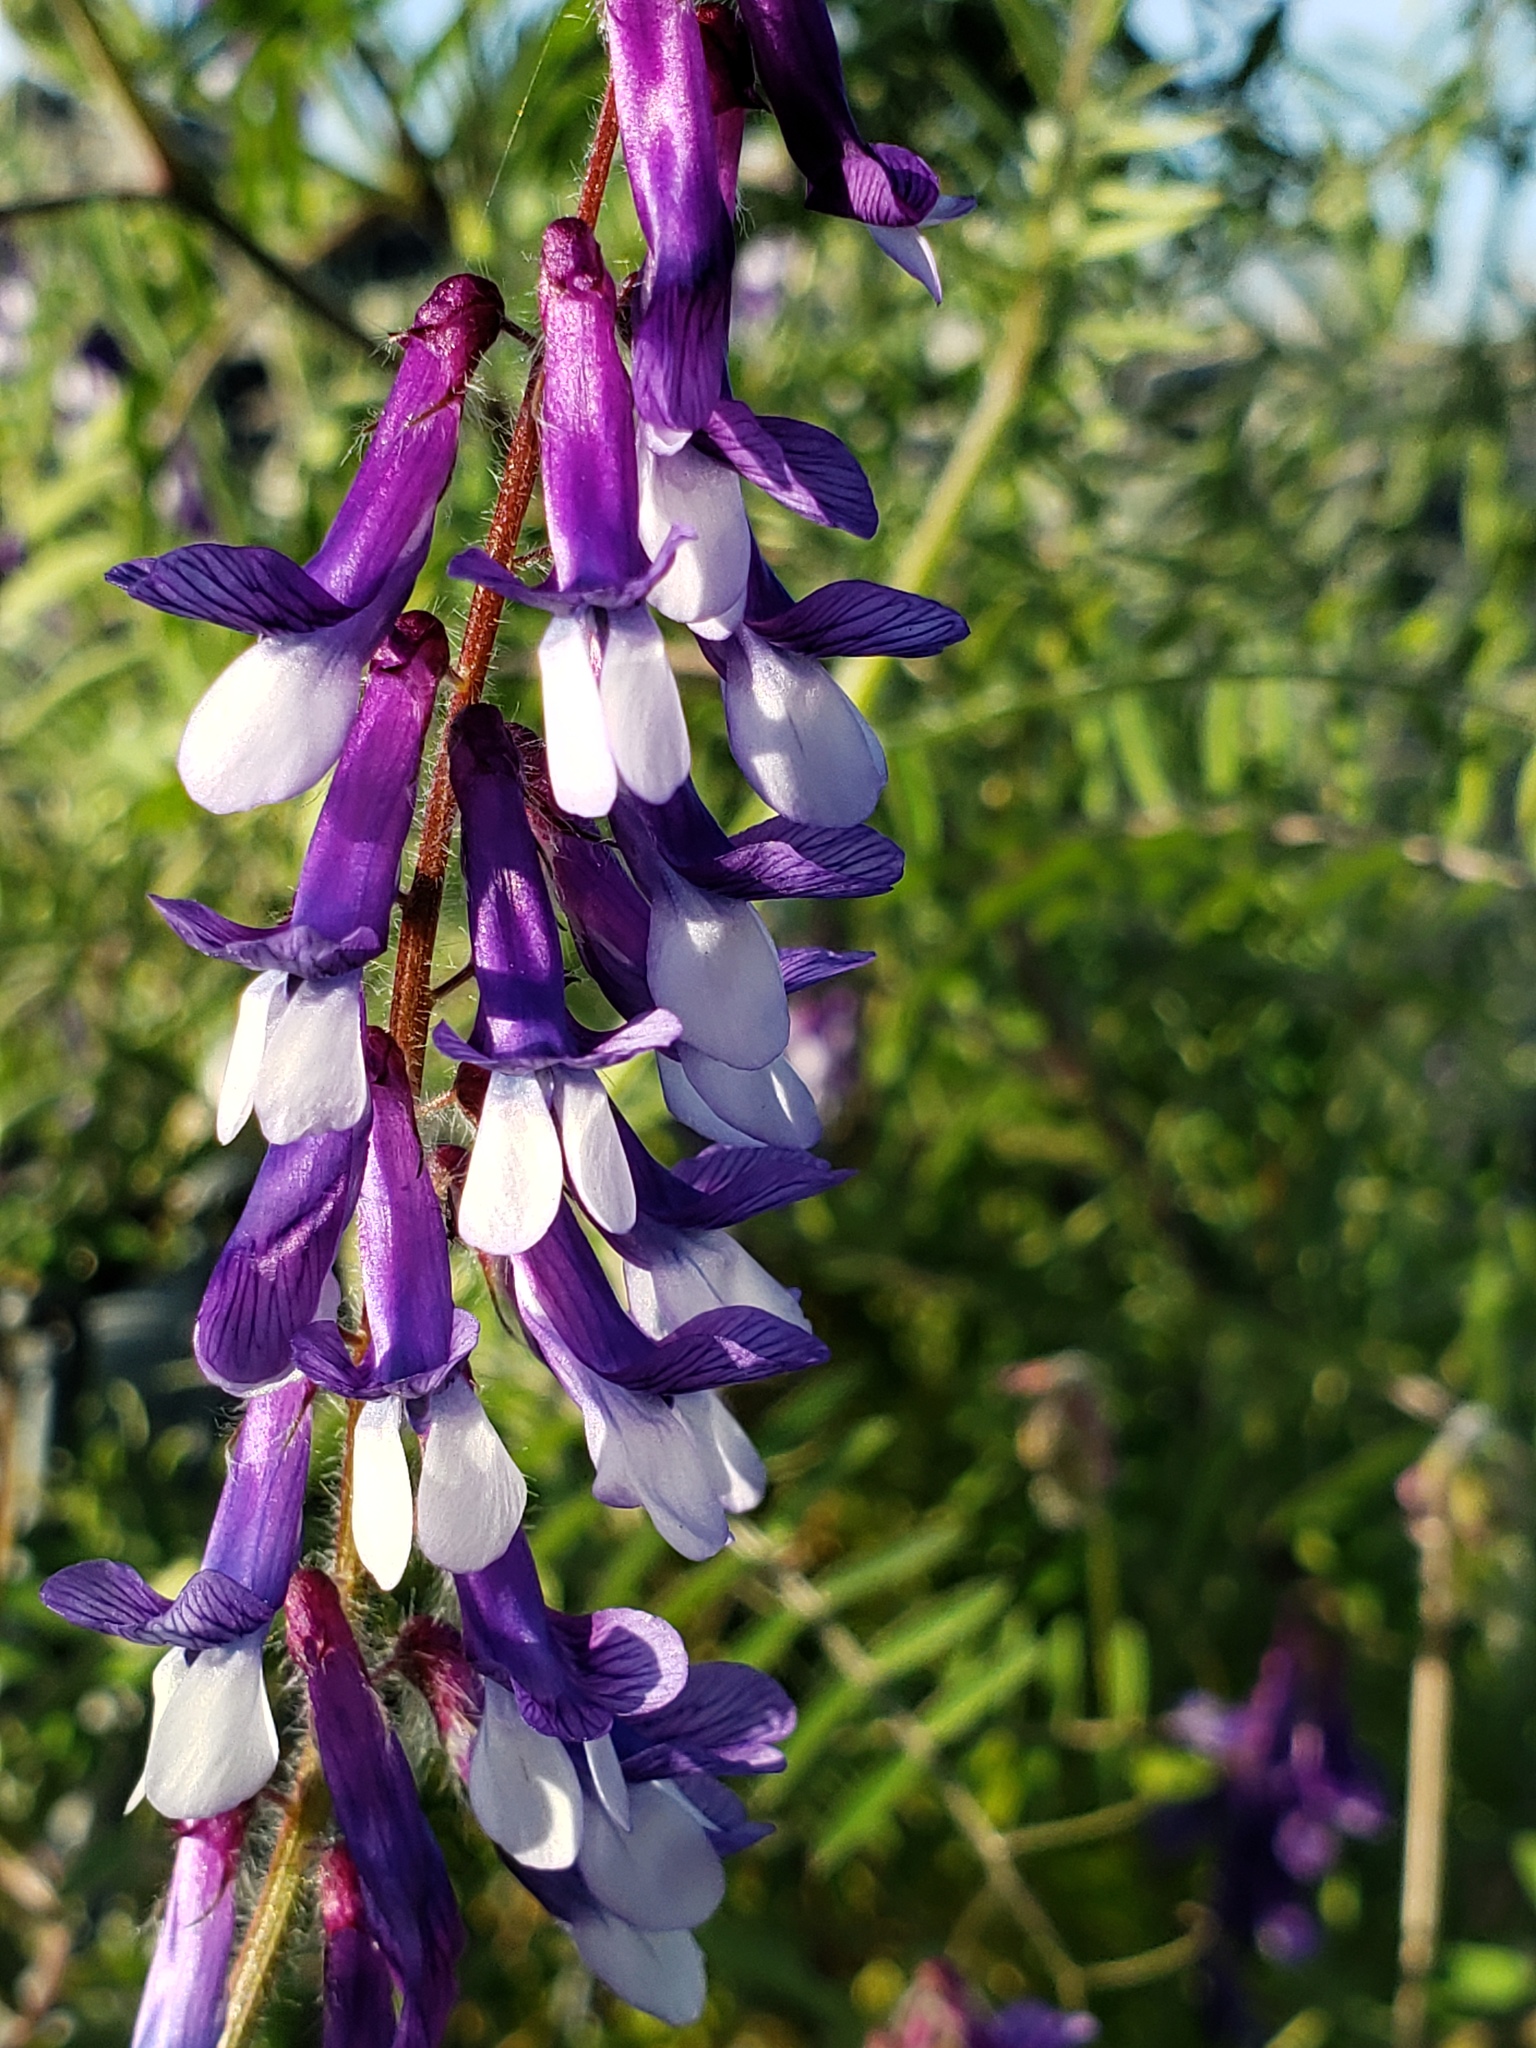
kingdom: Plantae
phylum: Tracheophyta
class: Magnoliopsida
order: Fabales
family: Fabaceae
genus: Vicia
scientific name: Vicia villosa
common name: Fodder vetch
